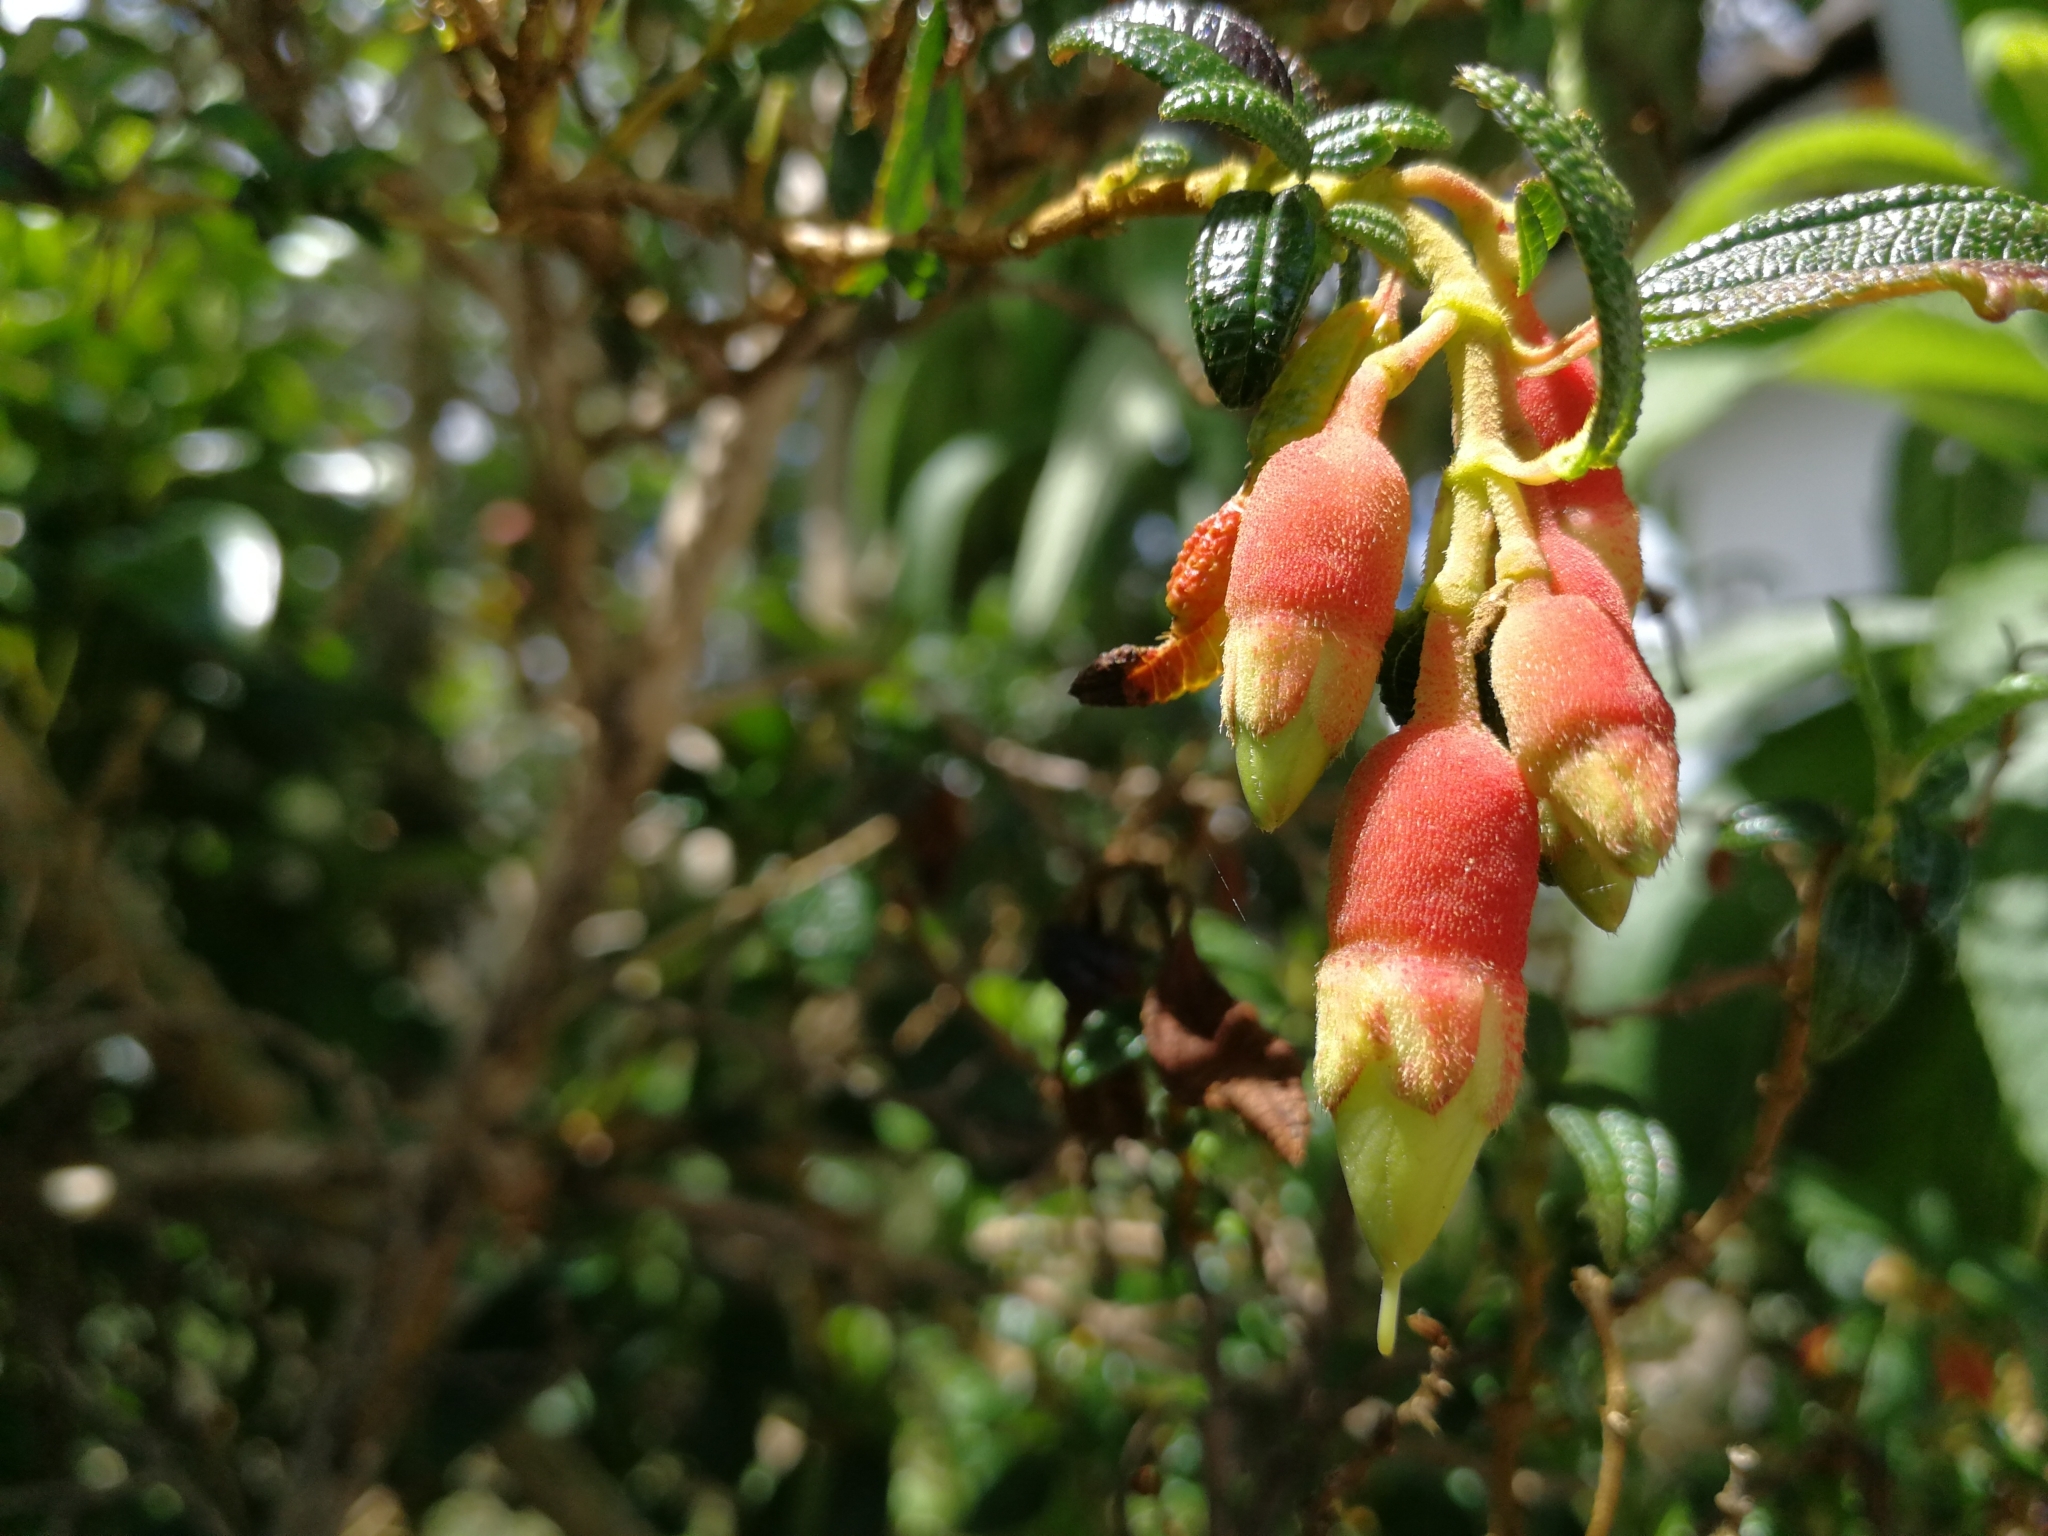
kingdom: Plantae
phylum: Tracheophyta
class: Magnoliopsida
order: Myrtales
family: Melastomataceae
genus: Brachyotum
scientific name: Brachyotum ledifolium
